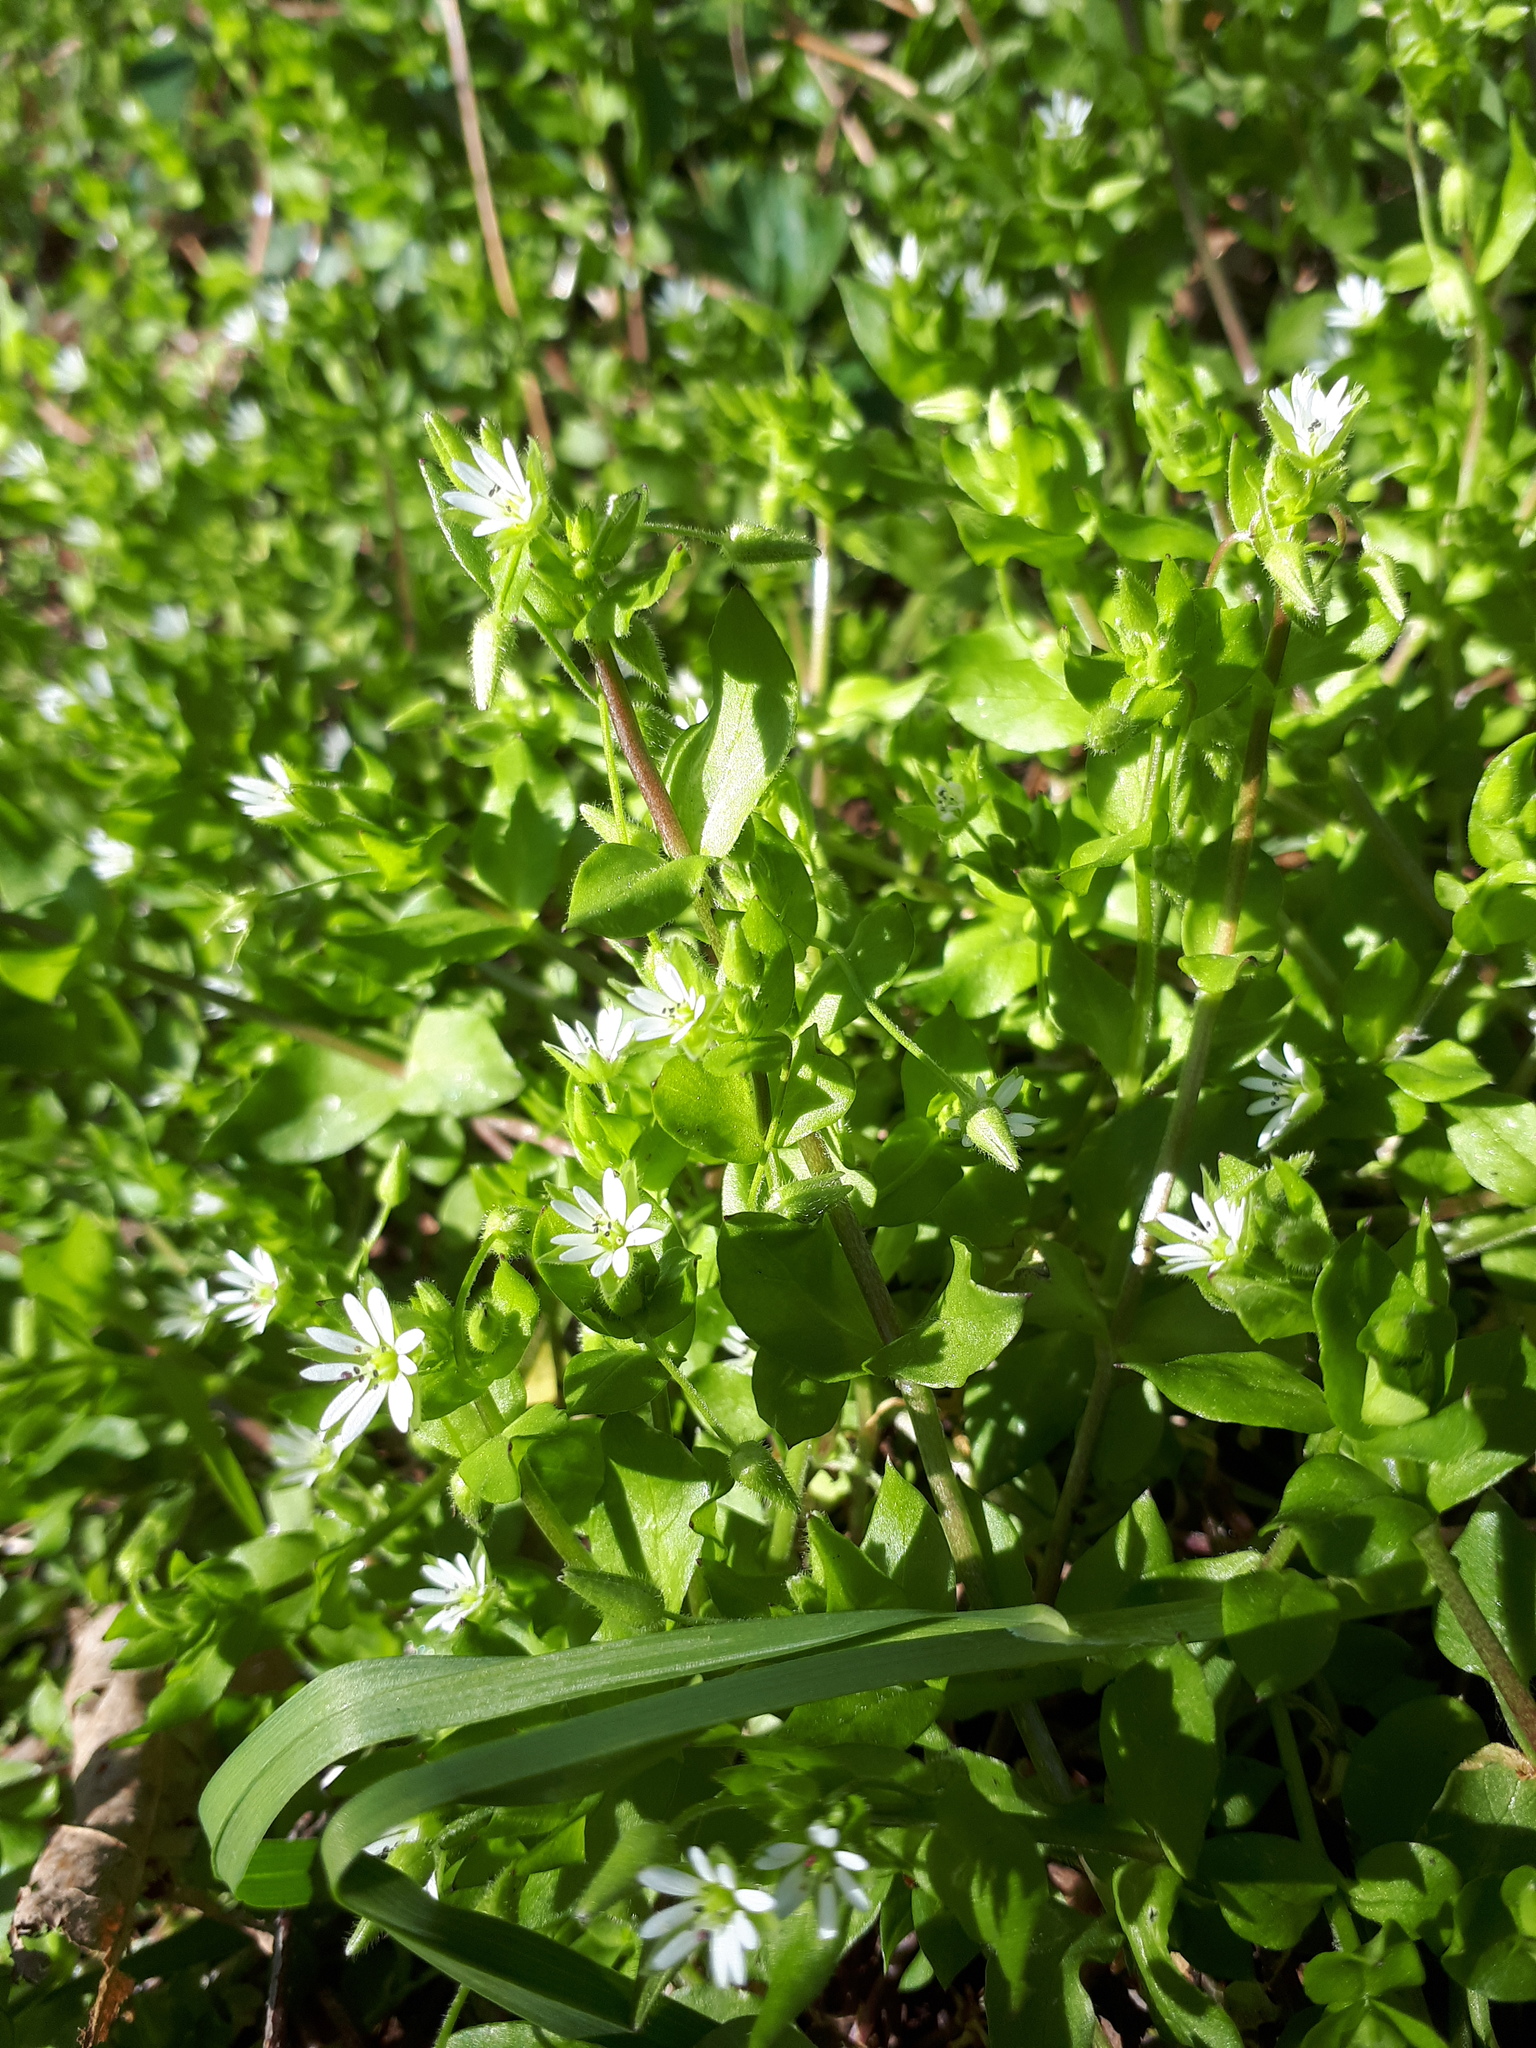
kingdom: Plantae
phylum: Tracheophyta
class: Magnoliopsida
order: Caryophyllales
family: Caryophyllaceae
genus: Stellaria
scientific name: Stellaria media
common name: Common chickweed
